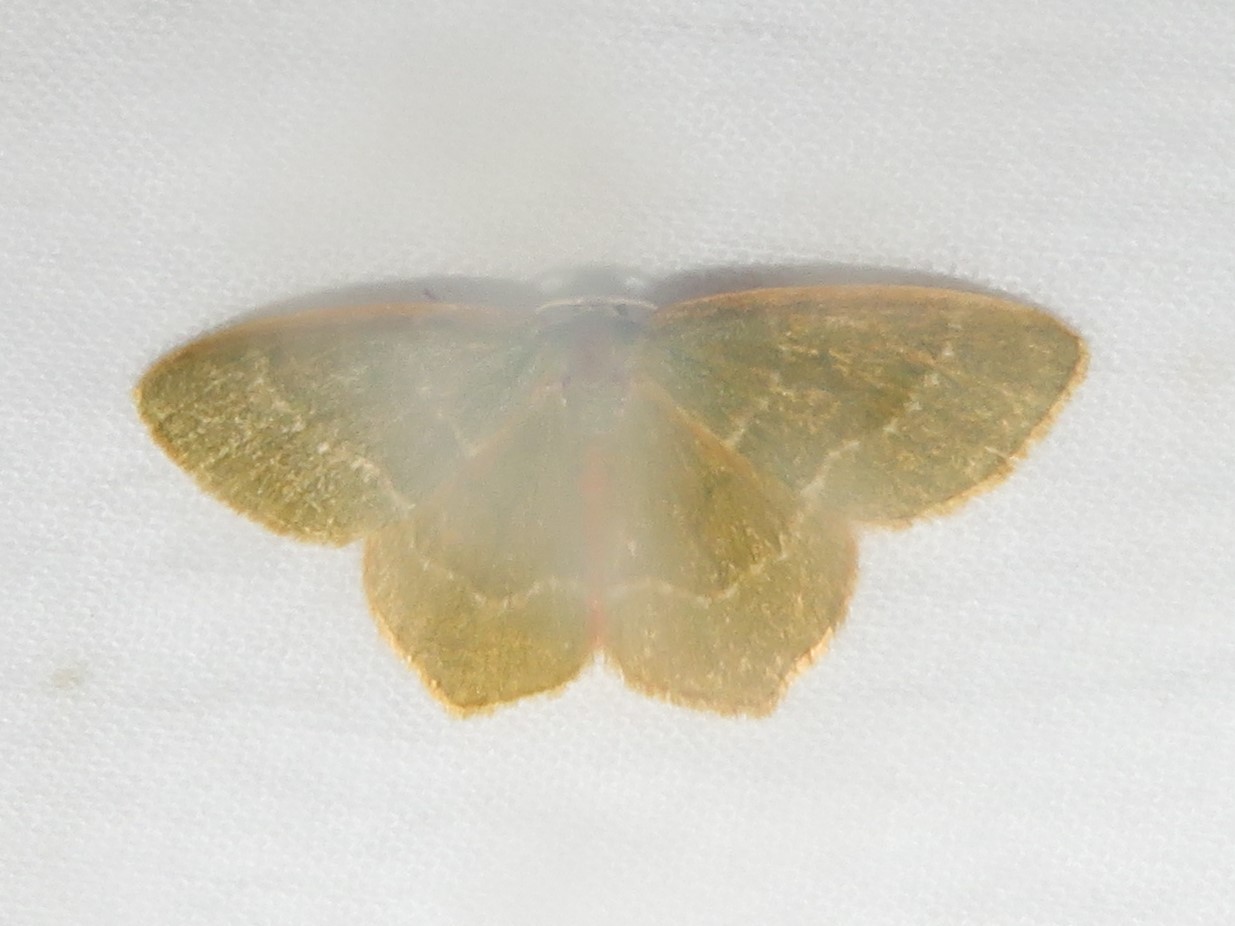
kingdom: Animalia
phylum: Arthropoda
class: Insecta
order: Lepidoptera
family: Geometridae
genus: Thalera
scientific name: Thalera pistasciaria
